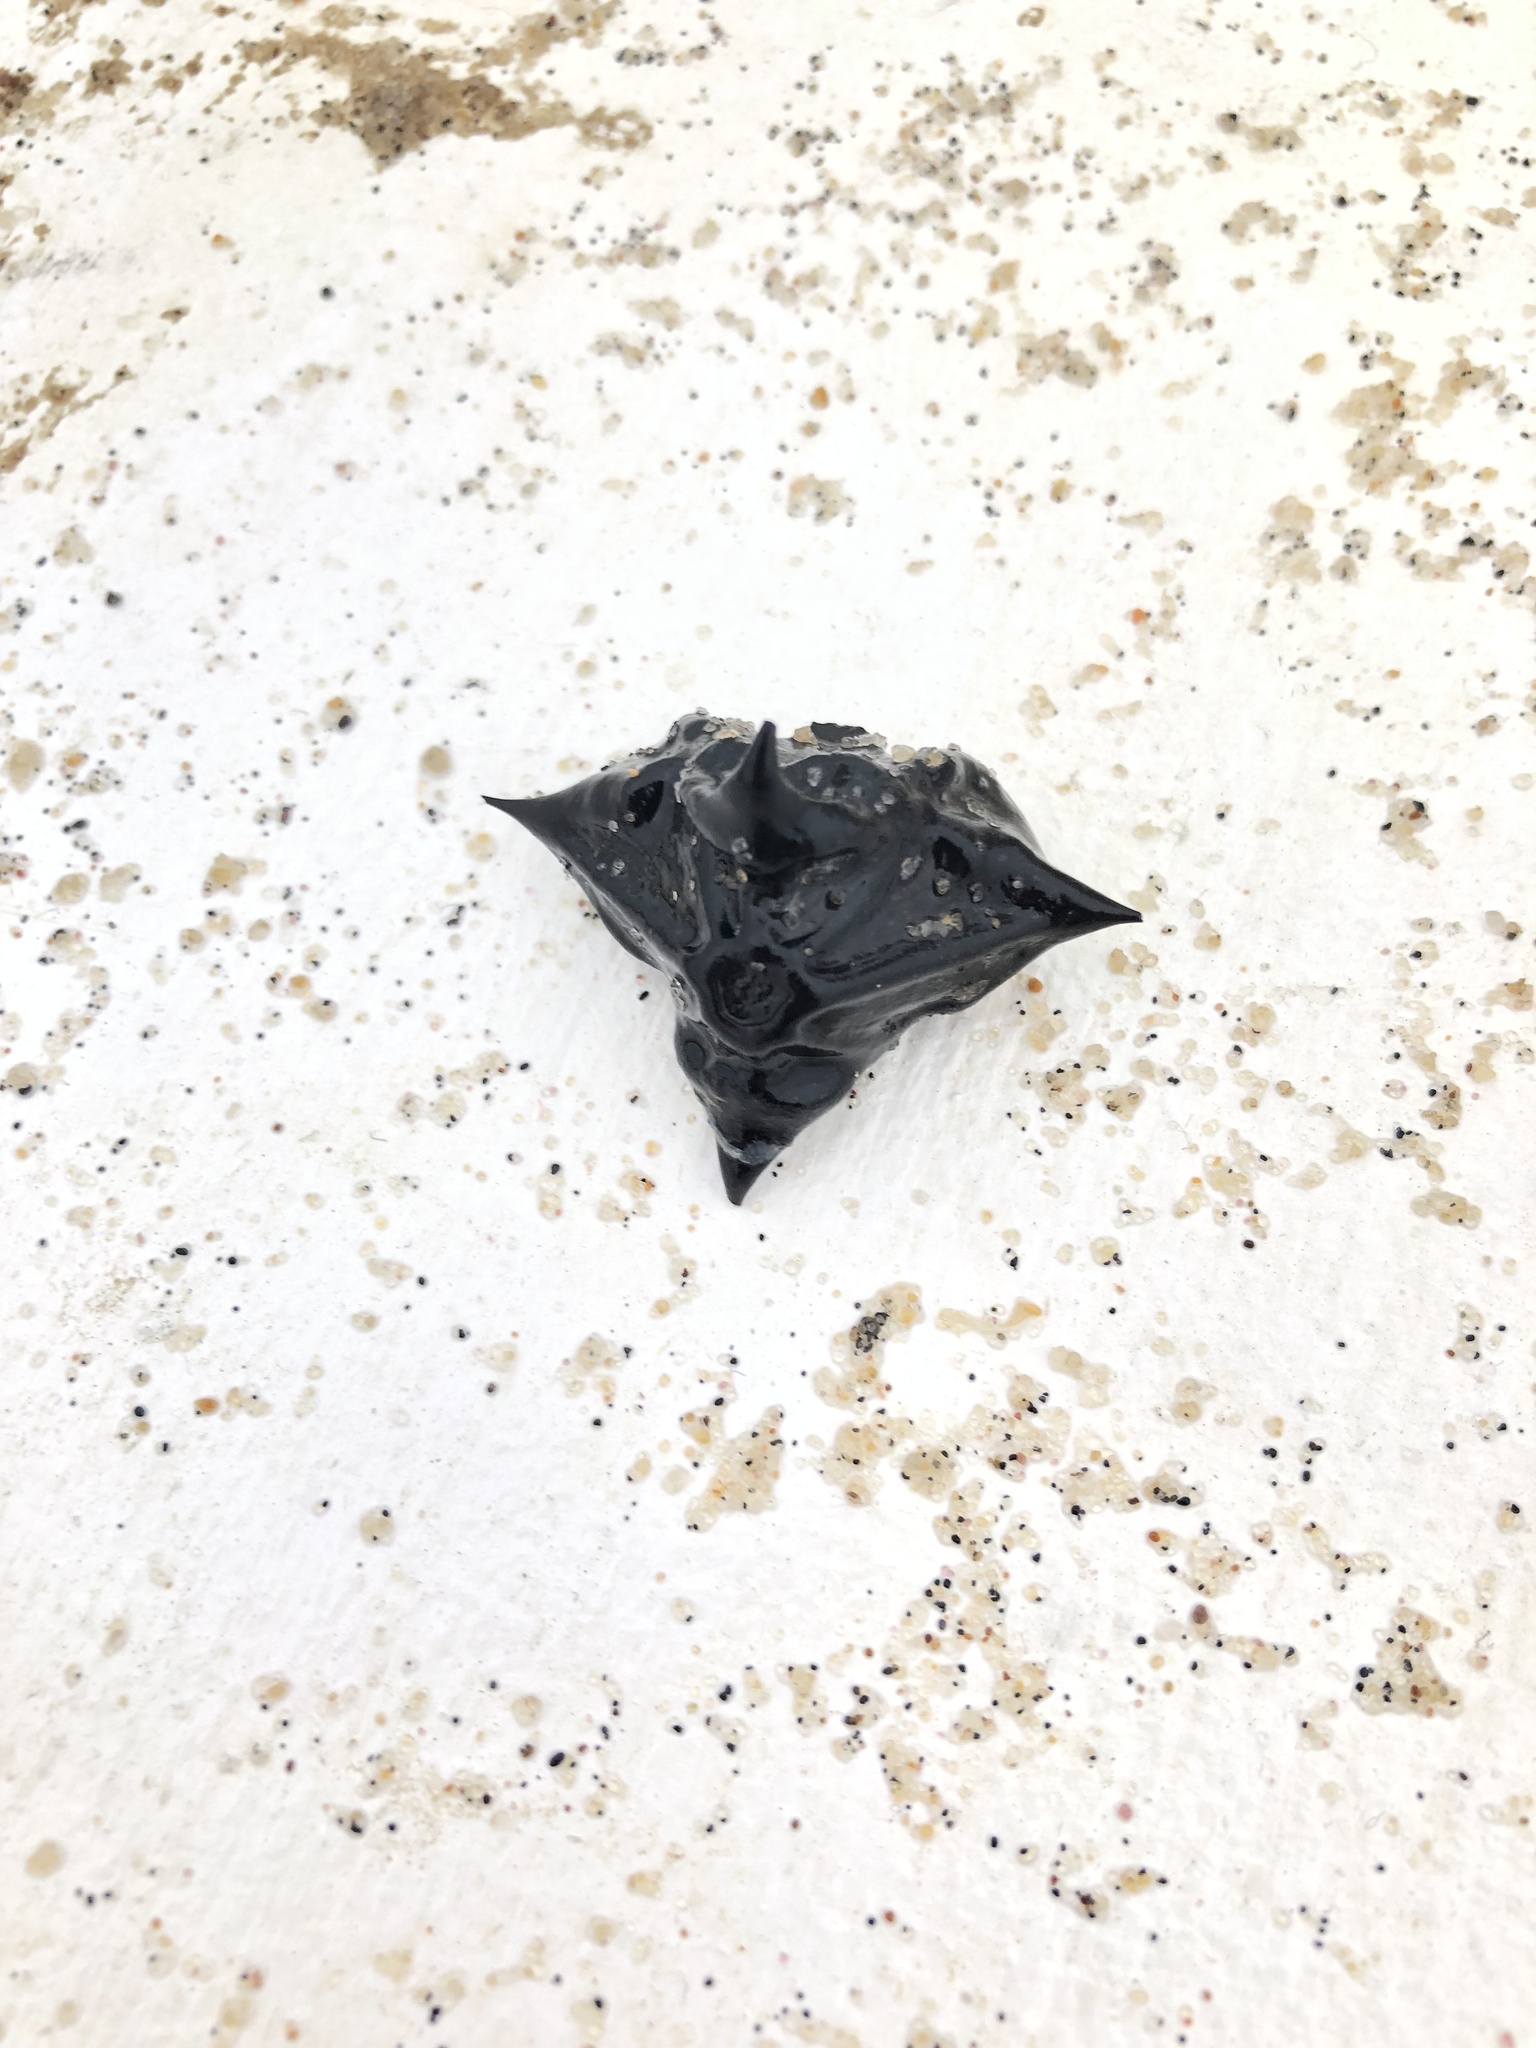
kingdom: Plantae
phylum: Tracheophyta
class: Magnoliopsida
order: Myrtales
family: Lythraceae
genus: Trapa
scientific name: Trapa natans
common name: Water chestnut
